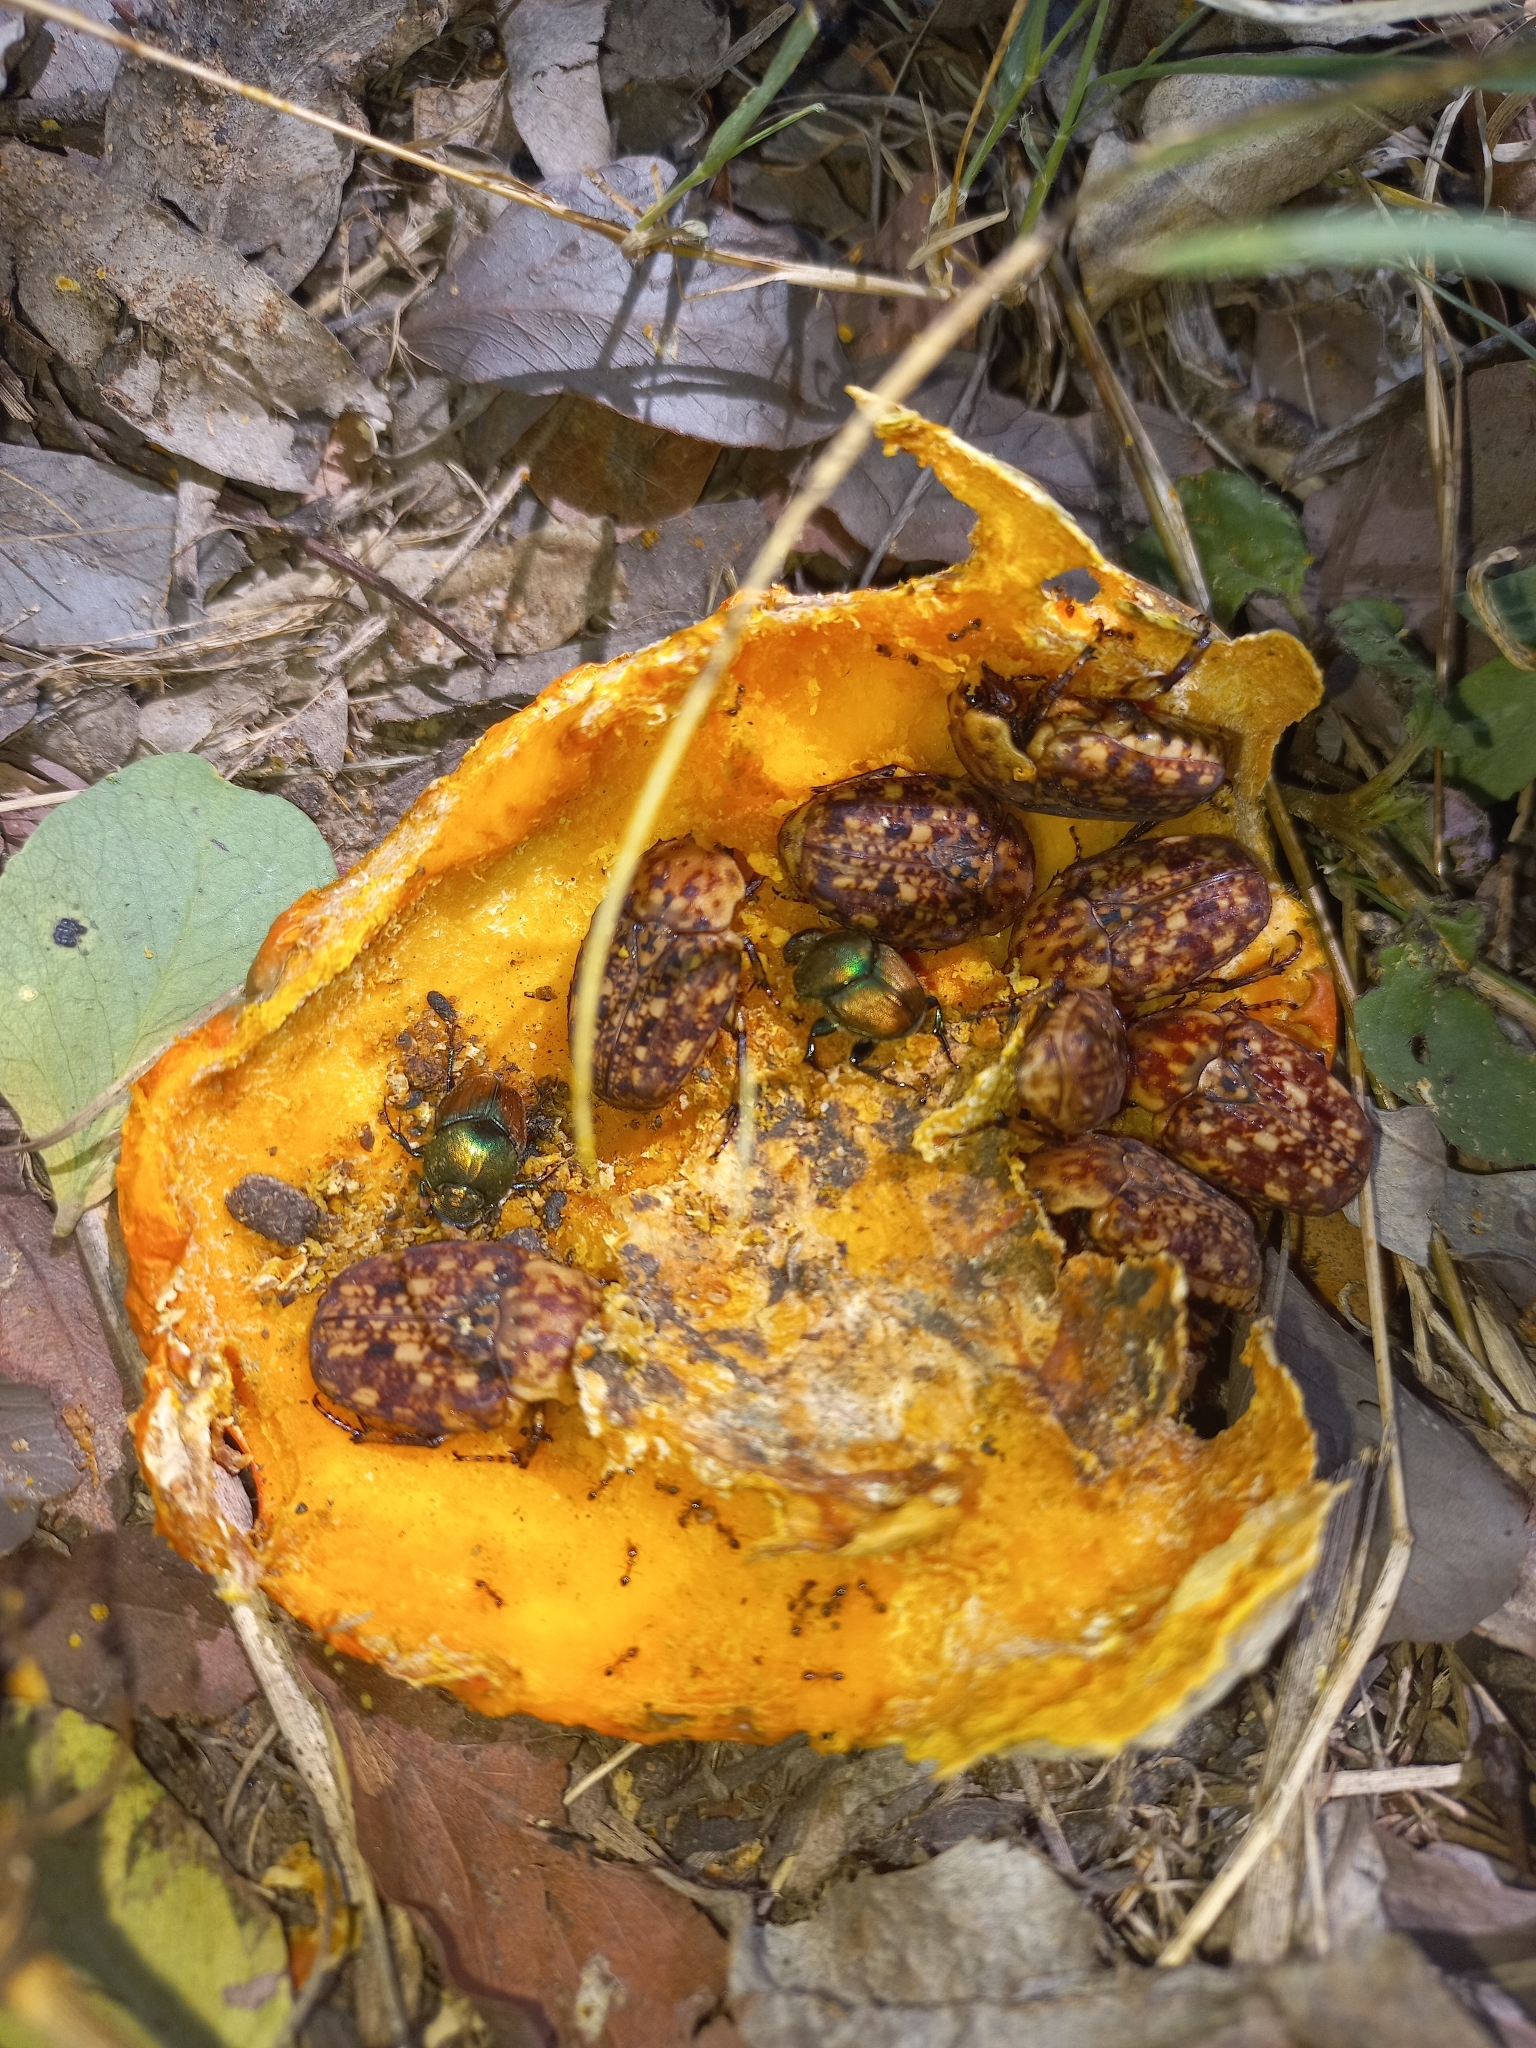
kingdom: Animalia
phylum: Arthropoda
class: Insecta
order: Coleoptera
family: Scarabaeidae
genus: Porphyronota
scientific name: Porphyronota hebraea
